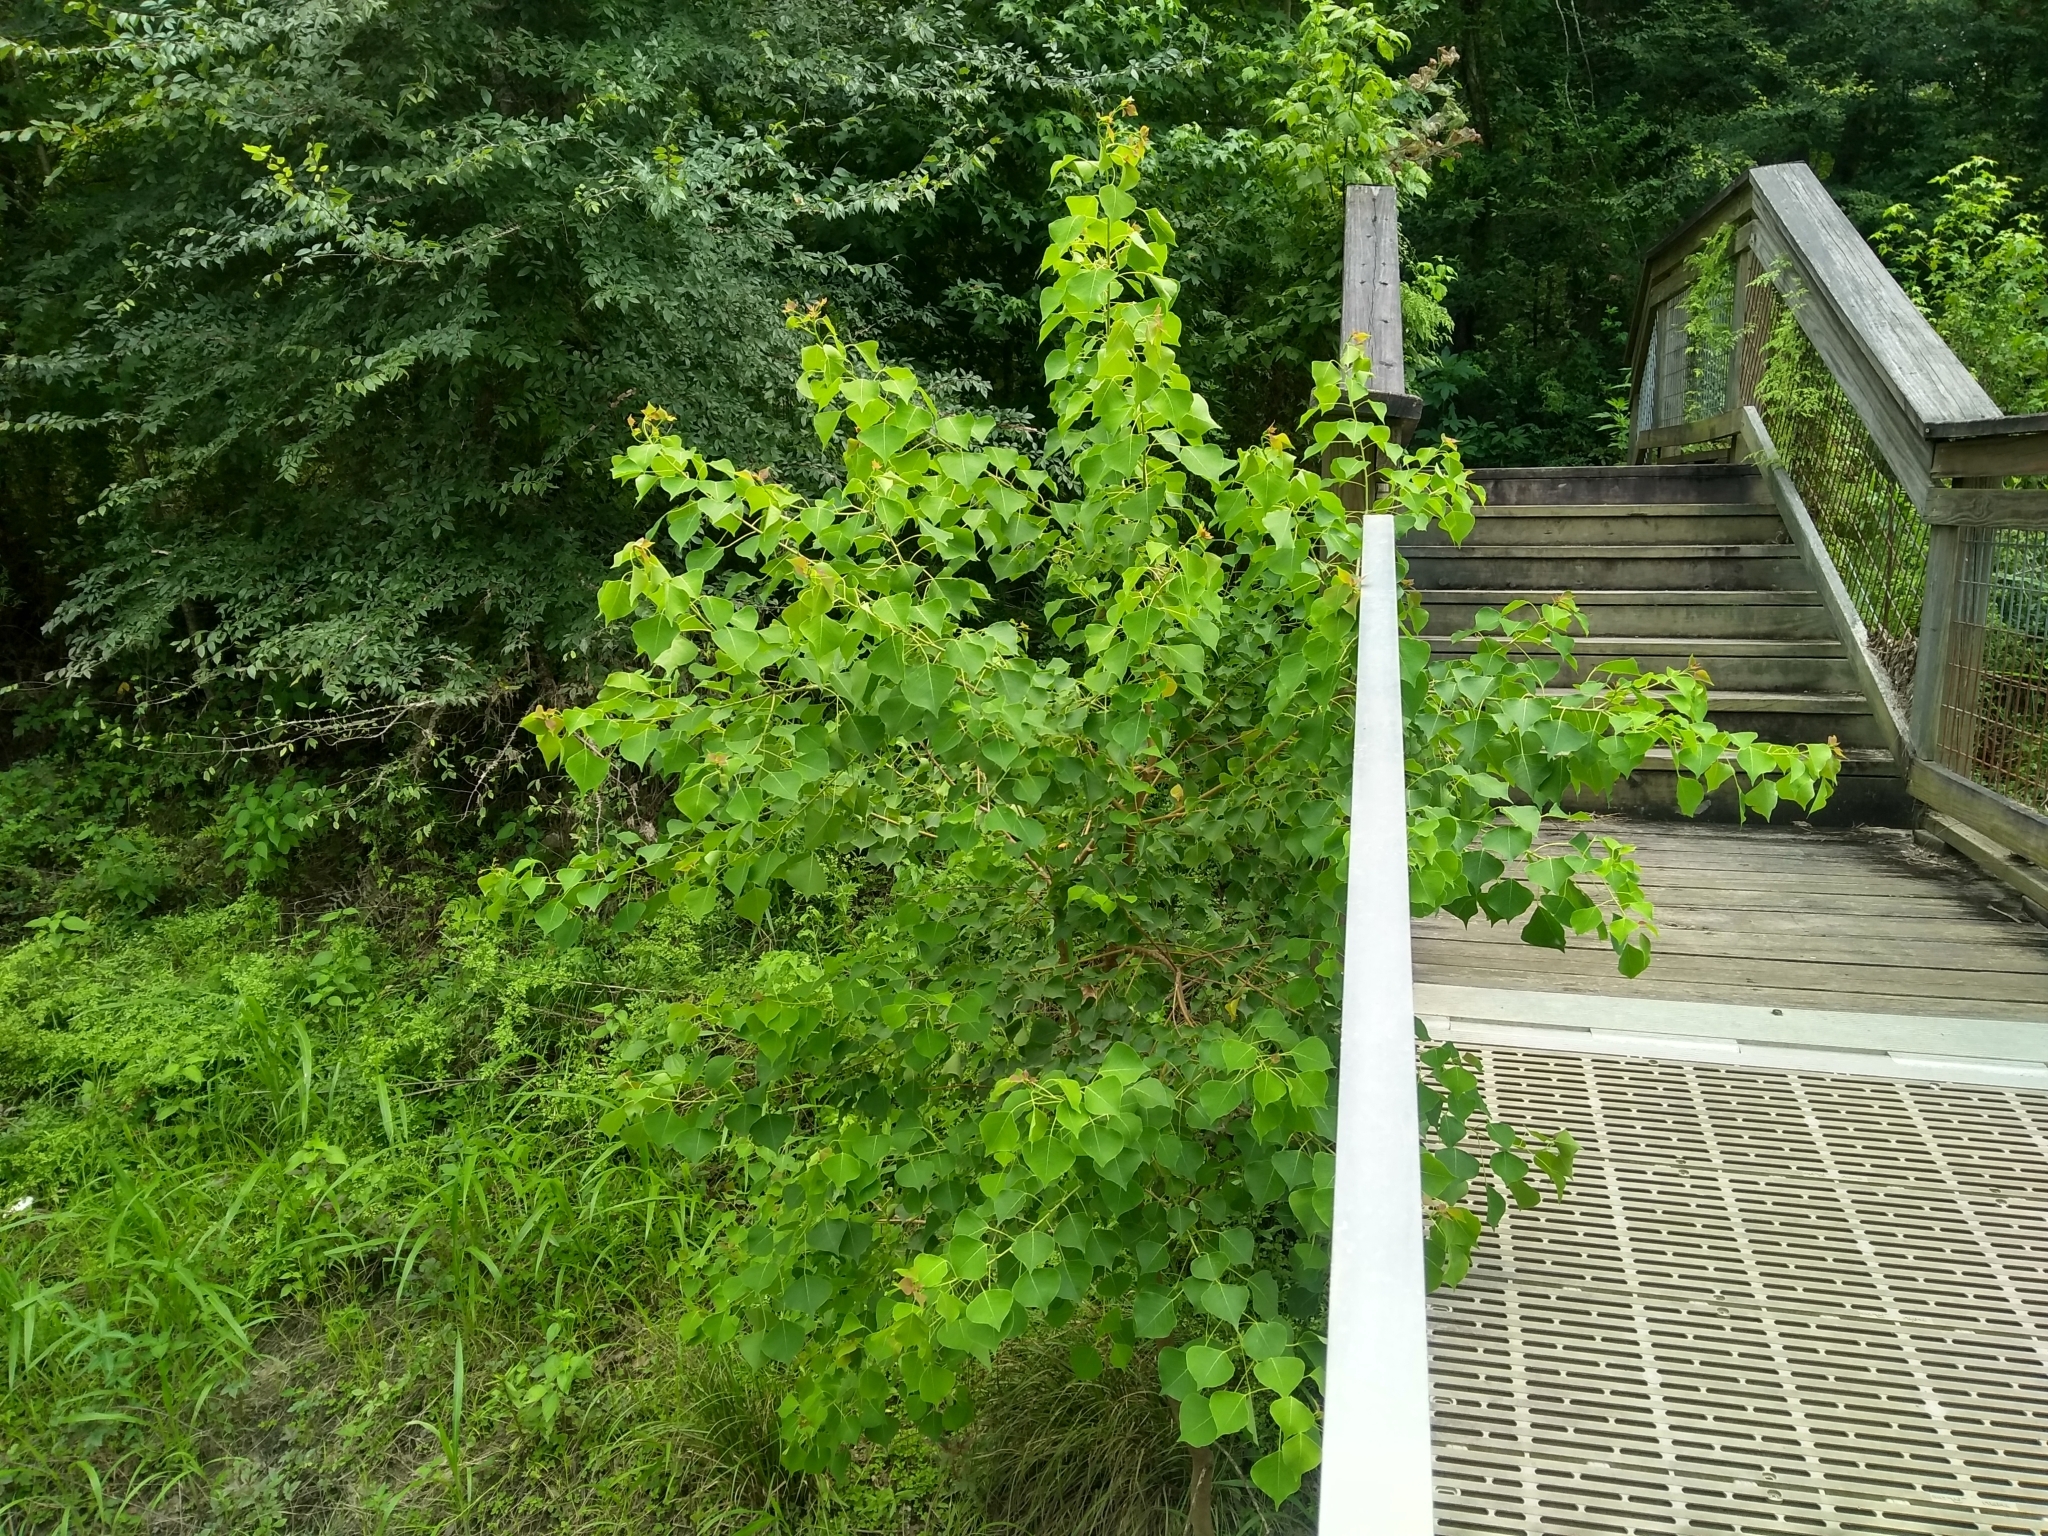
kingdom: Plantae
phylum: Tracheophyta
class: Magnoliopsida
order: Malpighiales
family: Euphorbiaceae
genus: Triadica
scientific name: Triadica sebifera
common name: Chinese tallow
